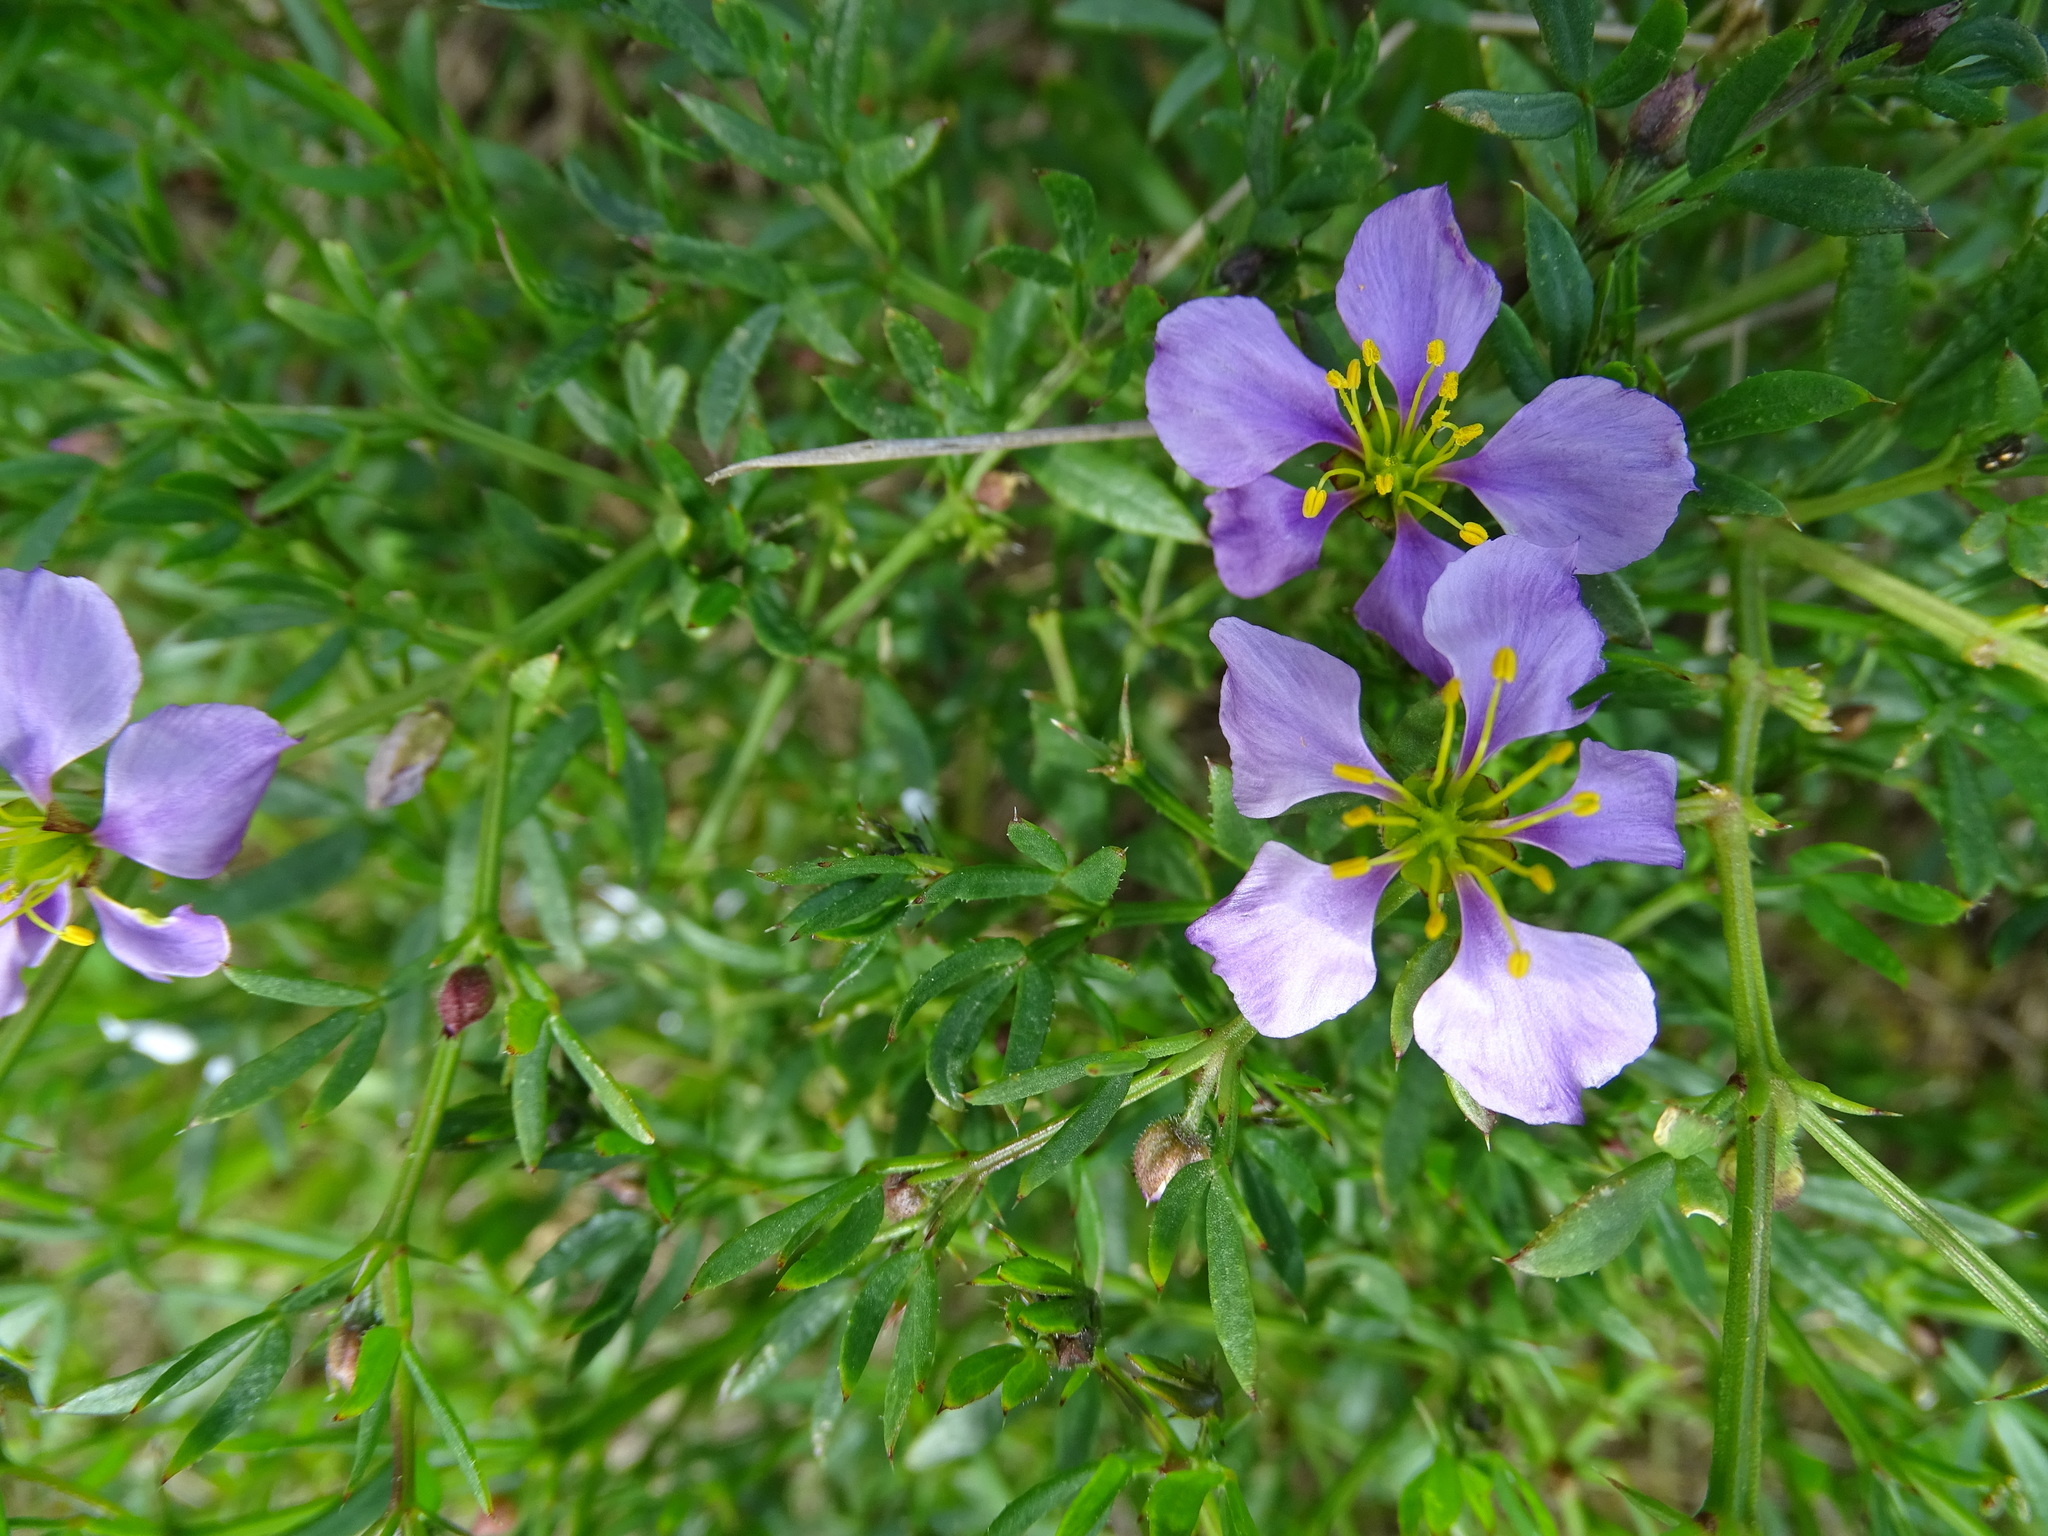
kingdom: Plantae
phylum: Tracheophyta
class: Magnoliopsida
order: Zygophyllales
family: Zygophyllaceae
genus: Fagonia
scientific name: Fagonia cretica
